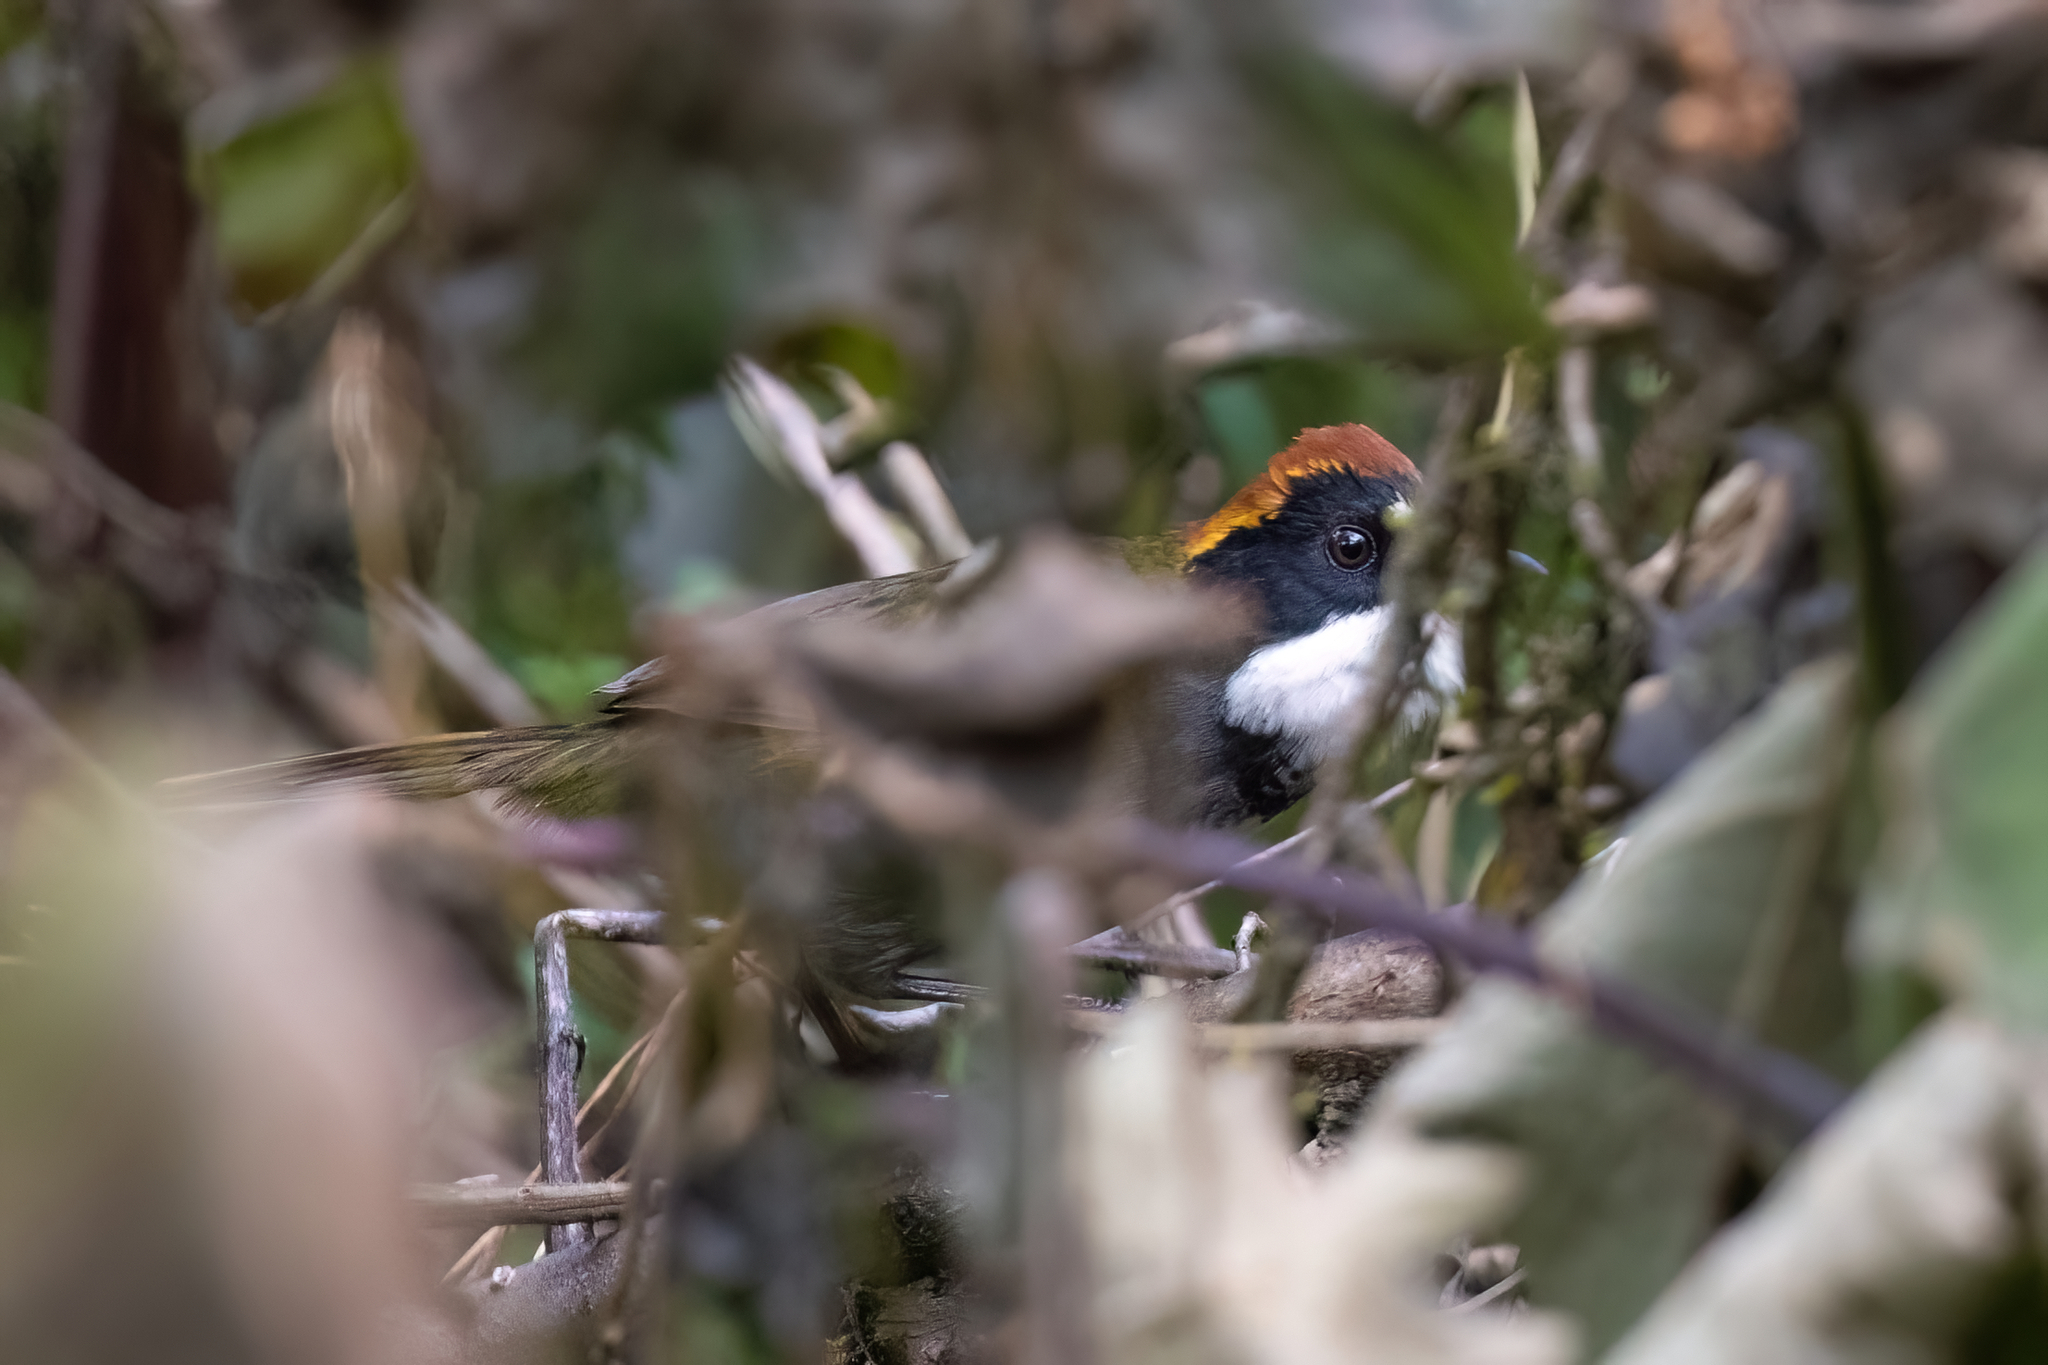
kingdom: Animalia
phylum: Chordata
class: Aves
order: Passeriformes
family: Passerellidae
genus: Arremon
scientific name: Arremon brunneinucha
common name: Chestnut-capped brushfinch
